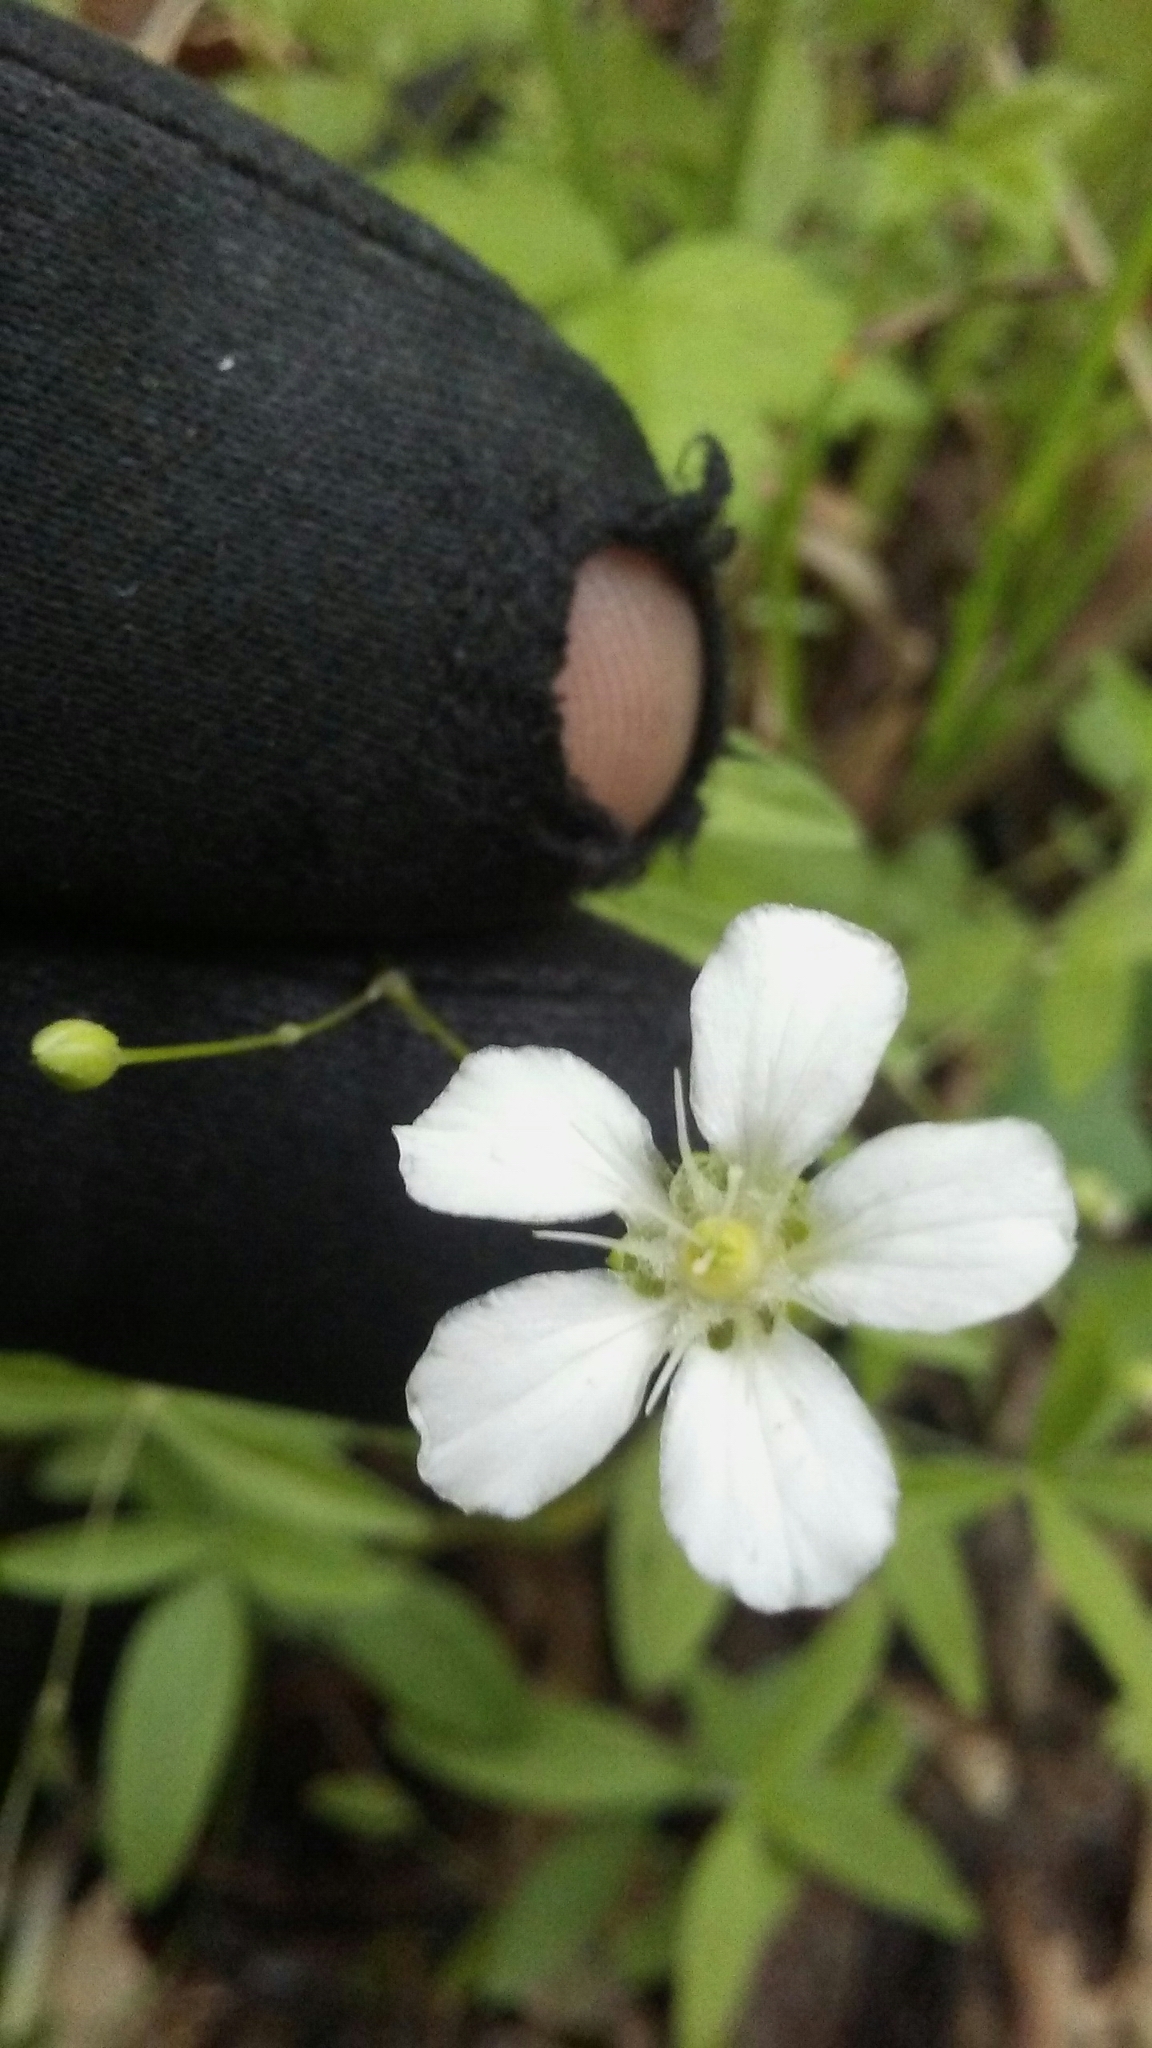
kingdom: Plantae
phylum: Tracheophyta
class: Magnoliopsida
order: Caryophyllales
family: Caryophyllaceae
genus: Moehringia
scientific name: Moehringia lateriflora
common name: Blunt-leaved sandwort
